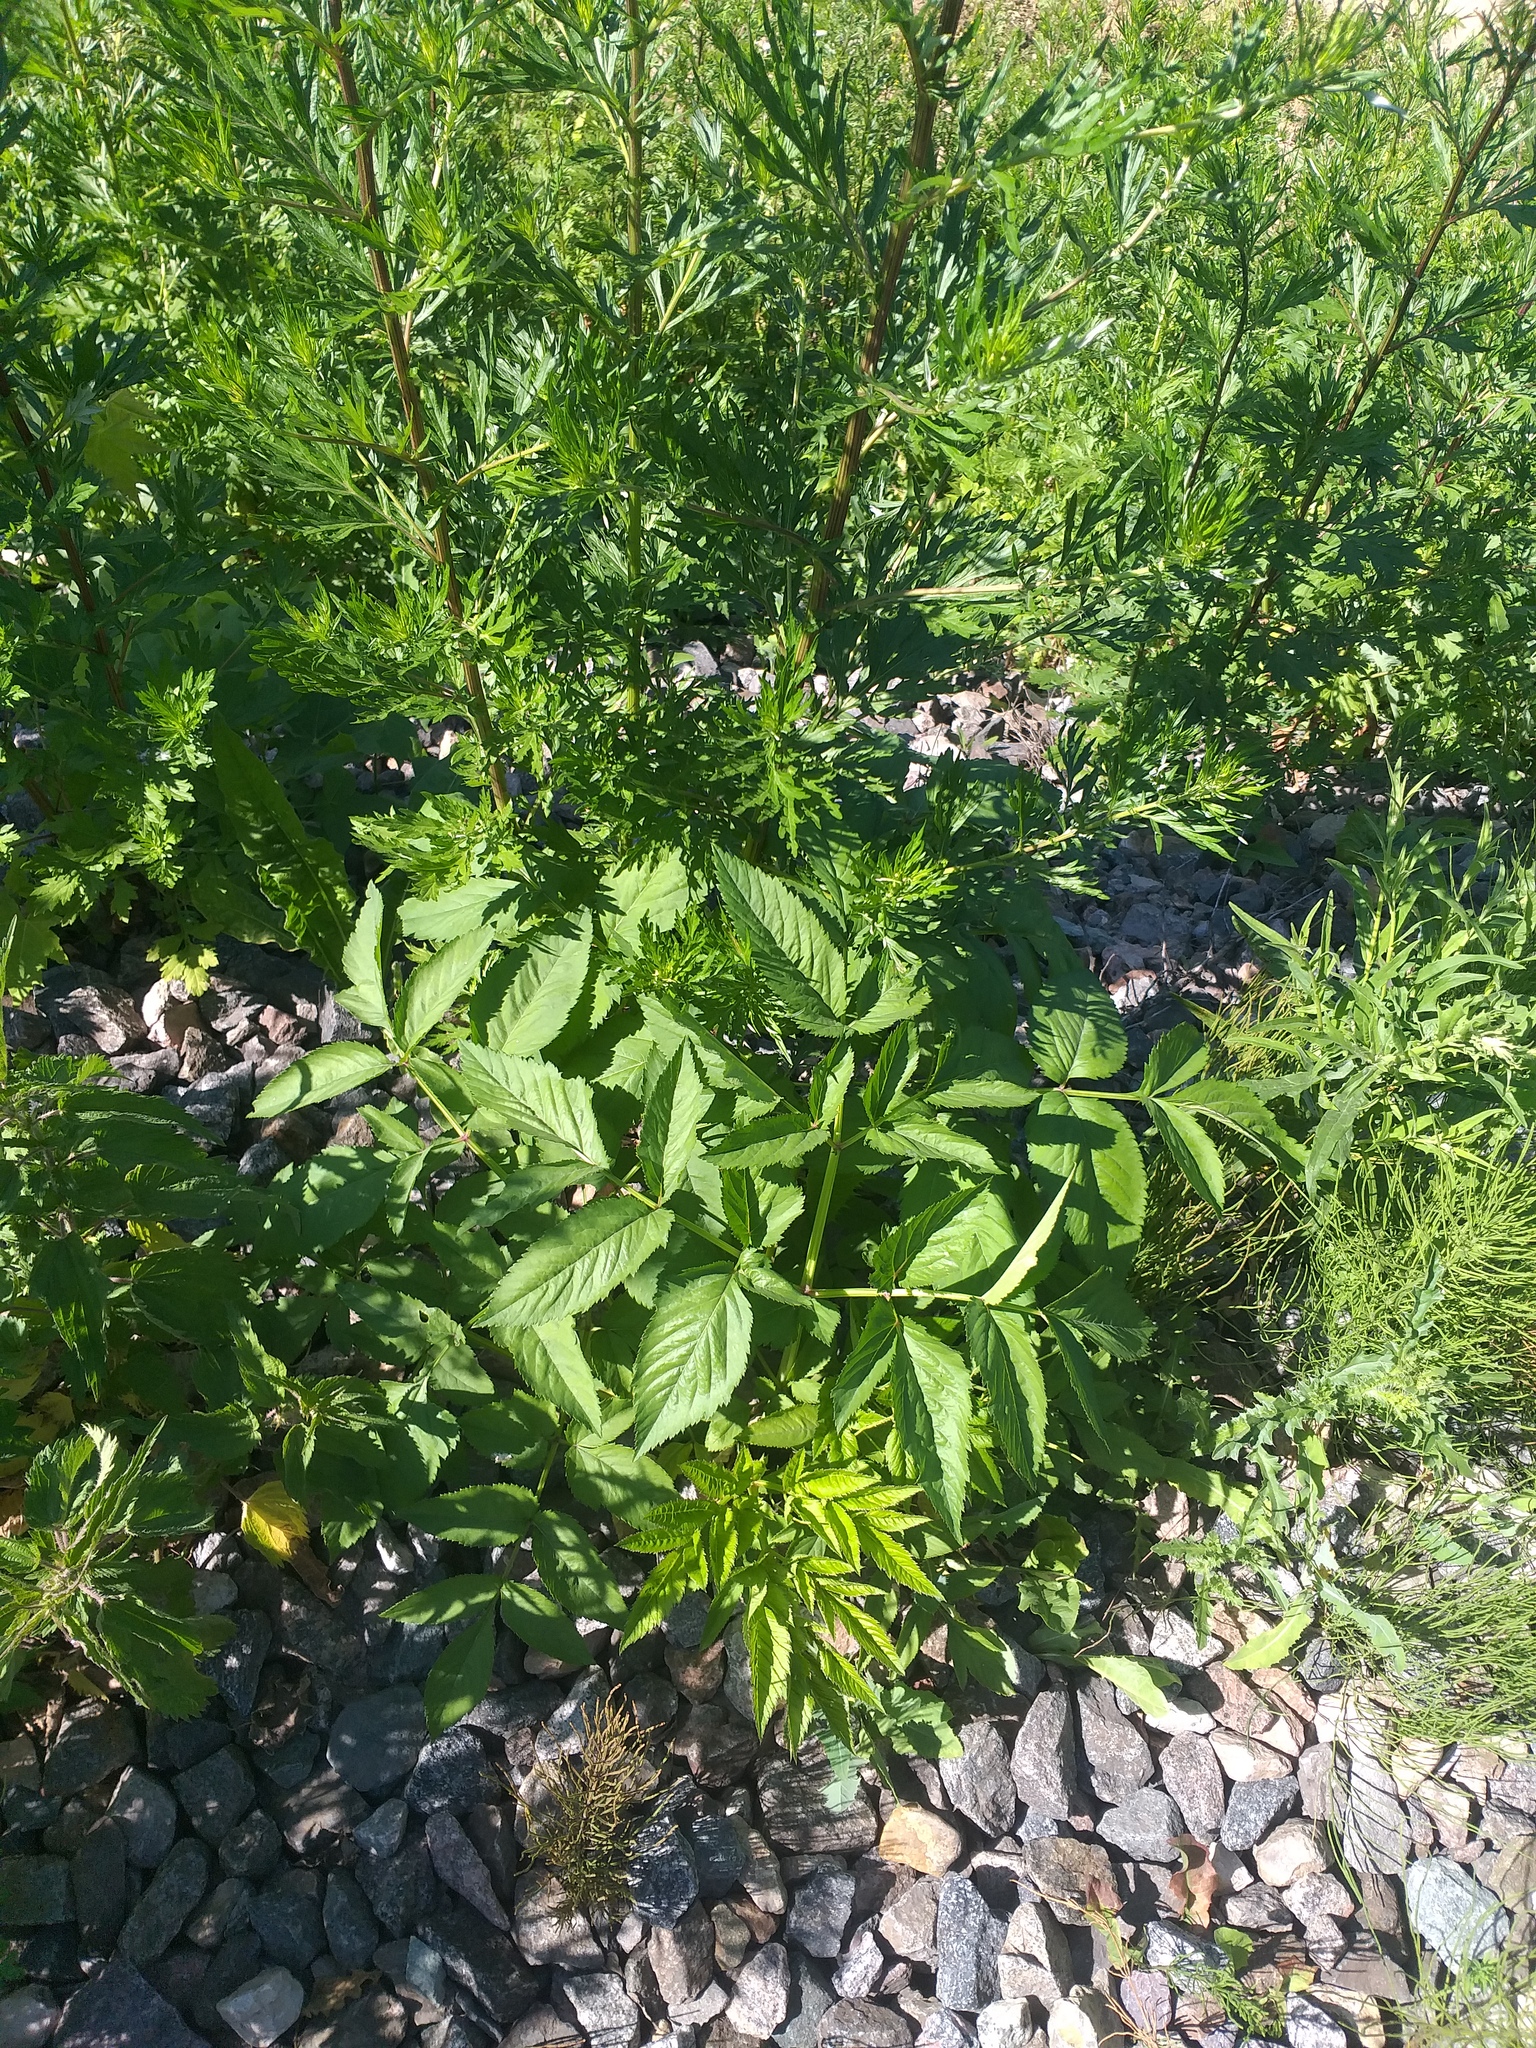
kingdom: Plantae
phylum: Tracheophyta
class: Magnoliopsida
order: Apiales
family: Apiaceae
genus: Angelica
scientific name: Angelica sylvestris
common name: Wild angelica
